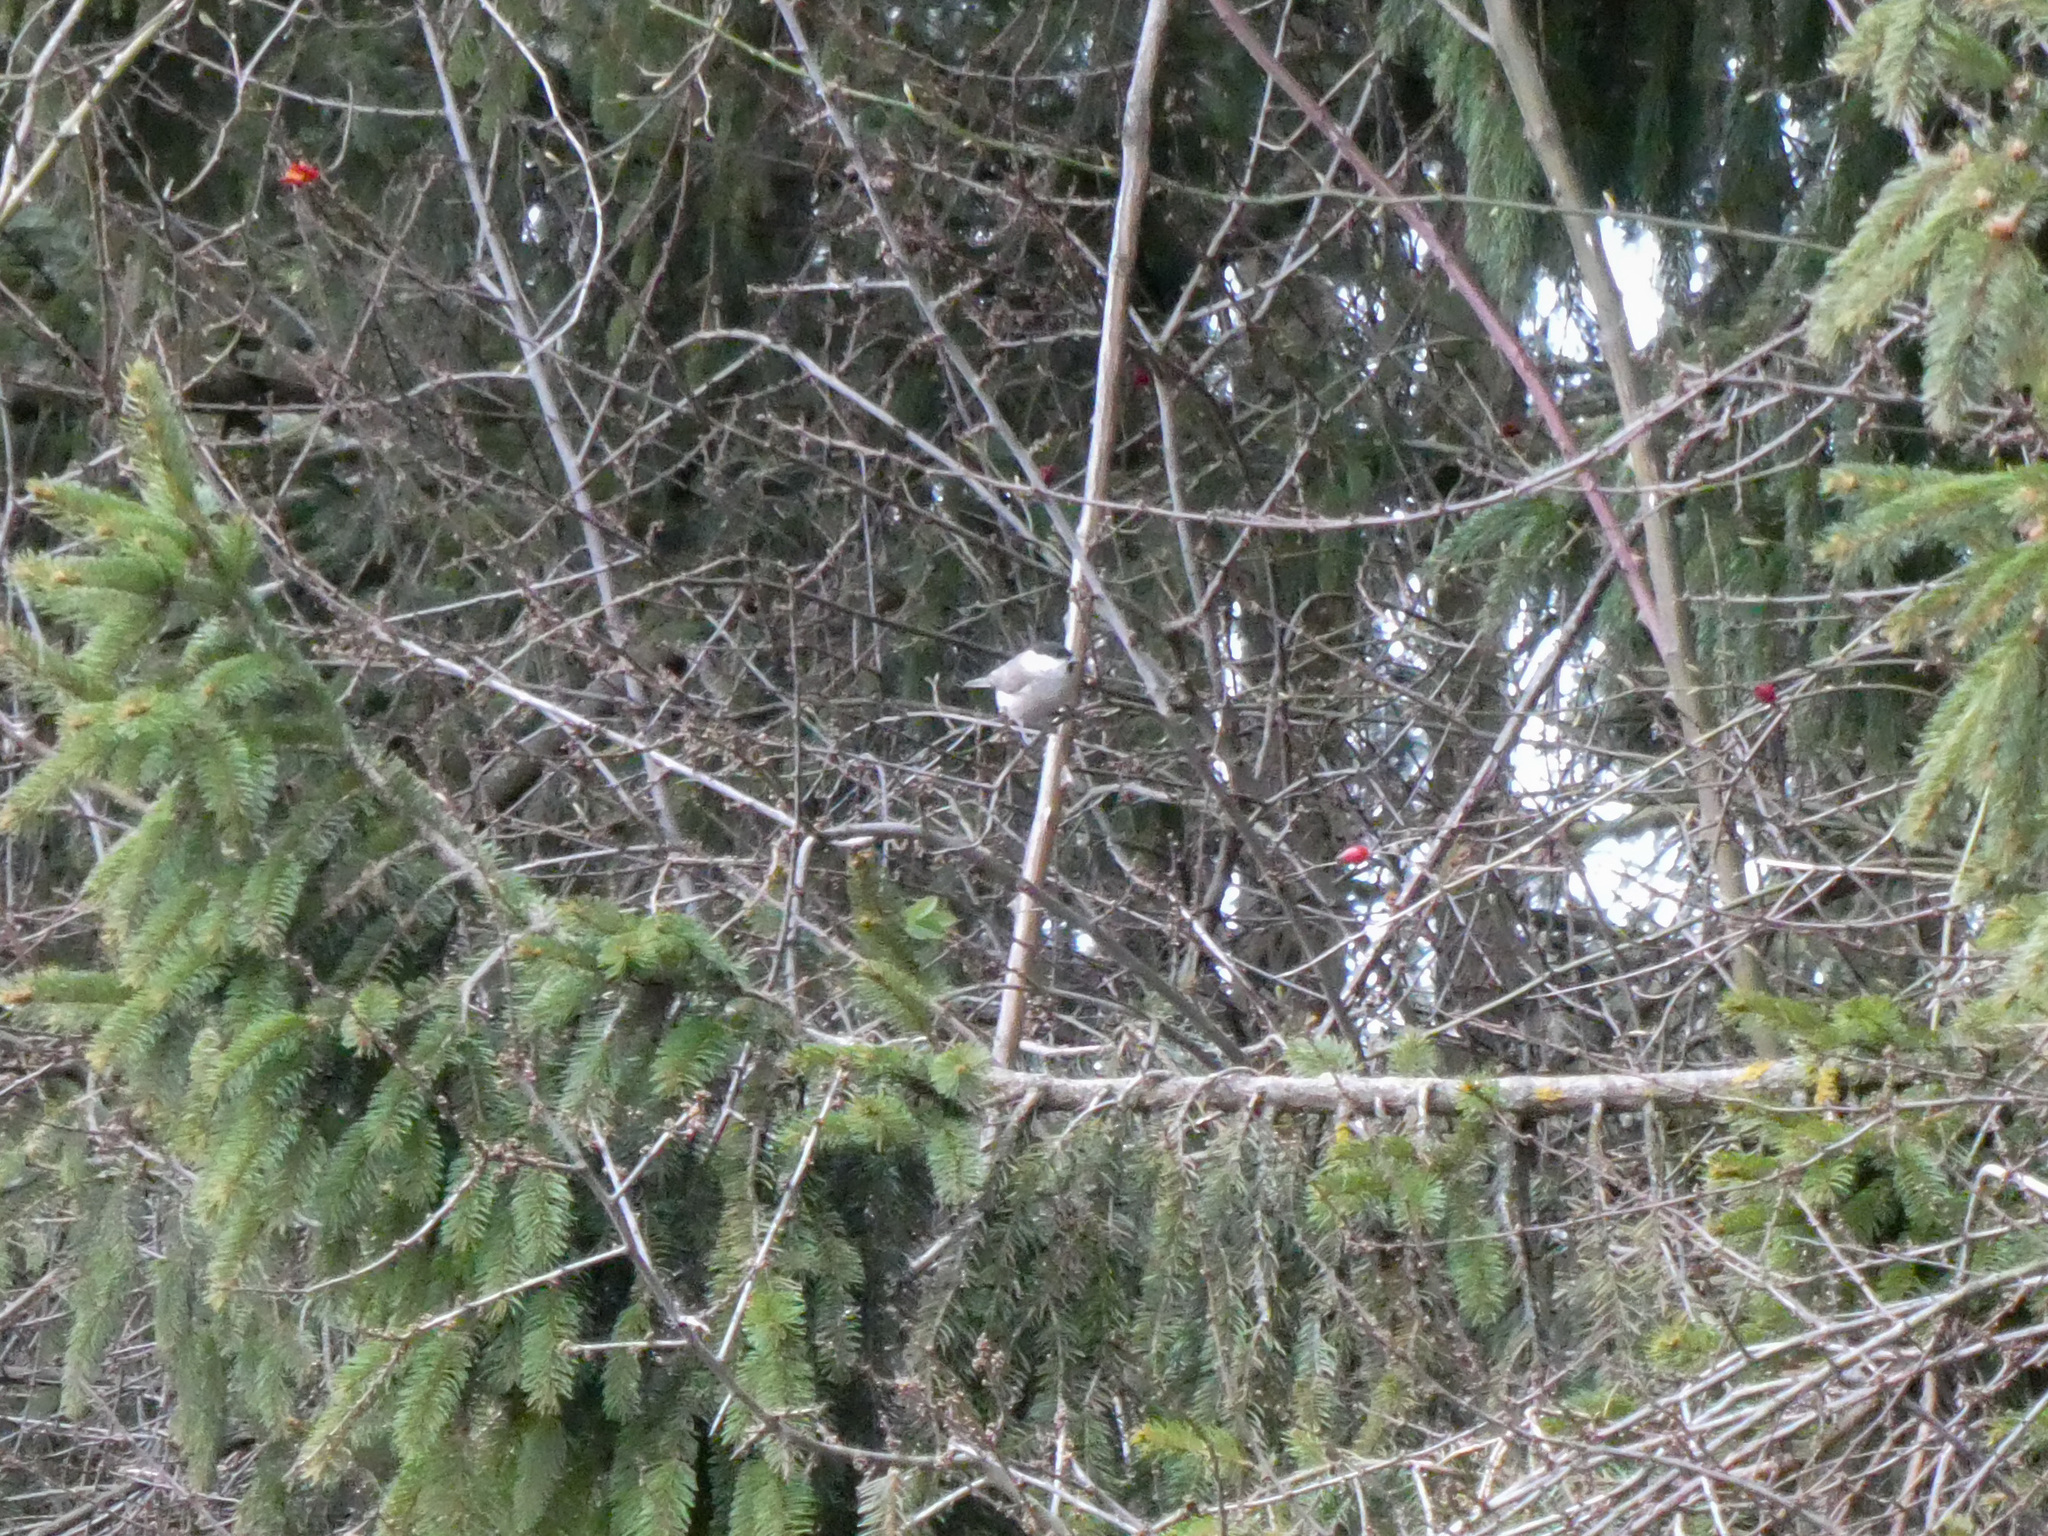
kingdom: Animalia
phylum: Chordata
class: Aves
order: Passeriformes
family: Paridae
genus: Poecile
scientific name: Poecile palustris
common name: Marsh tit
